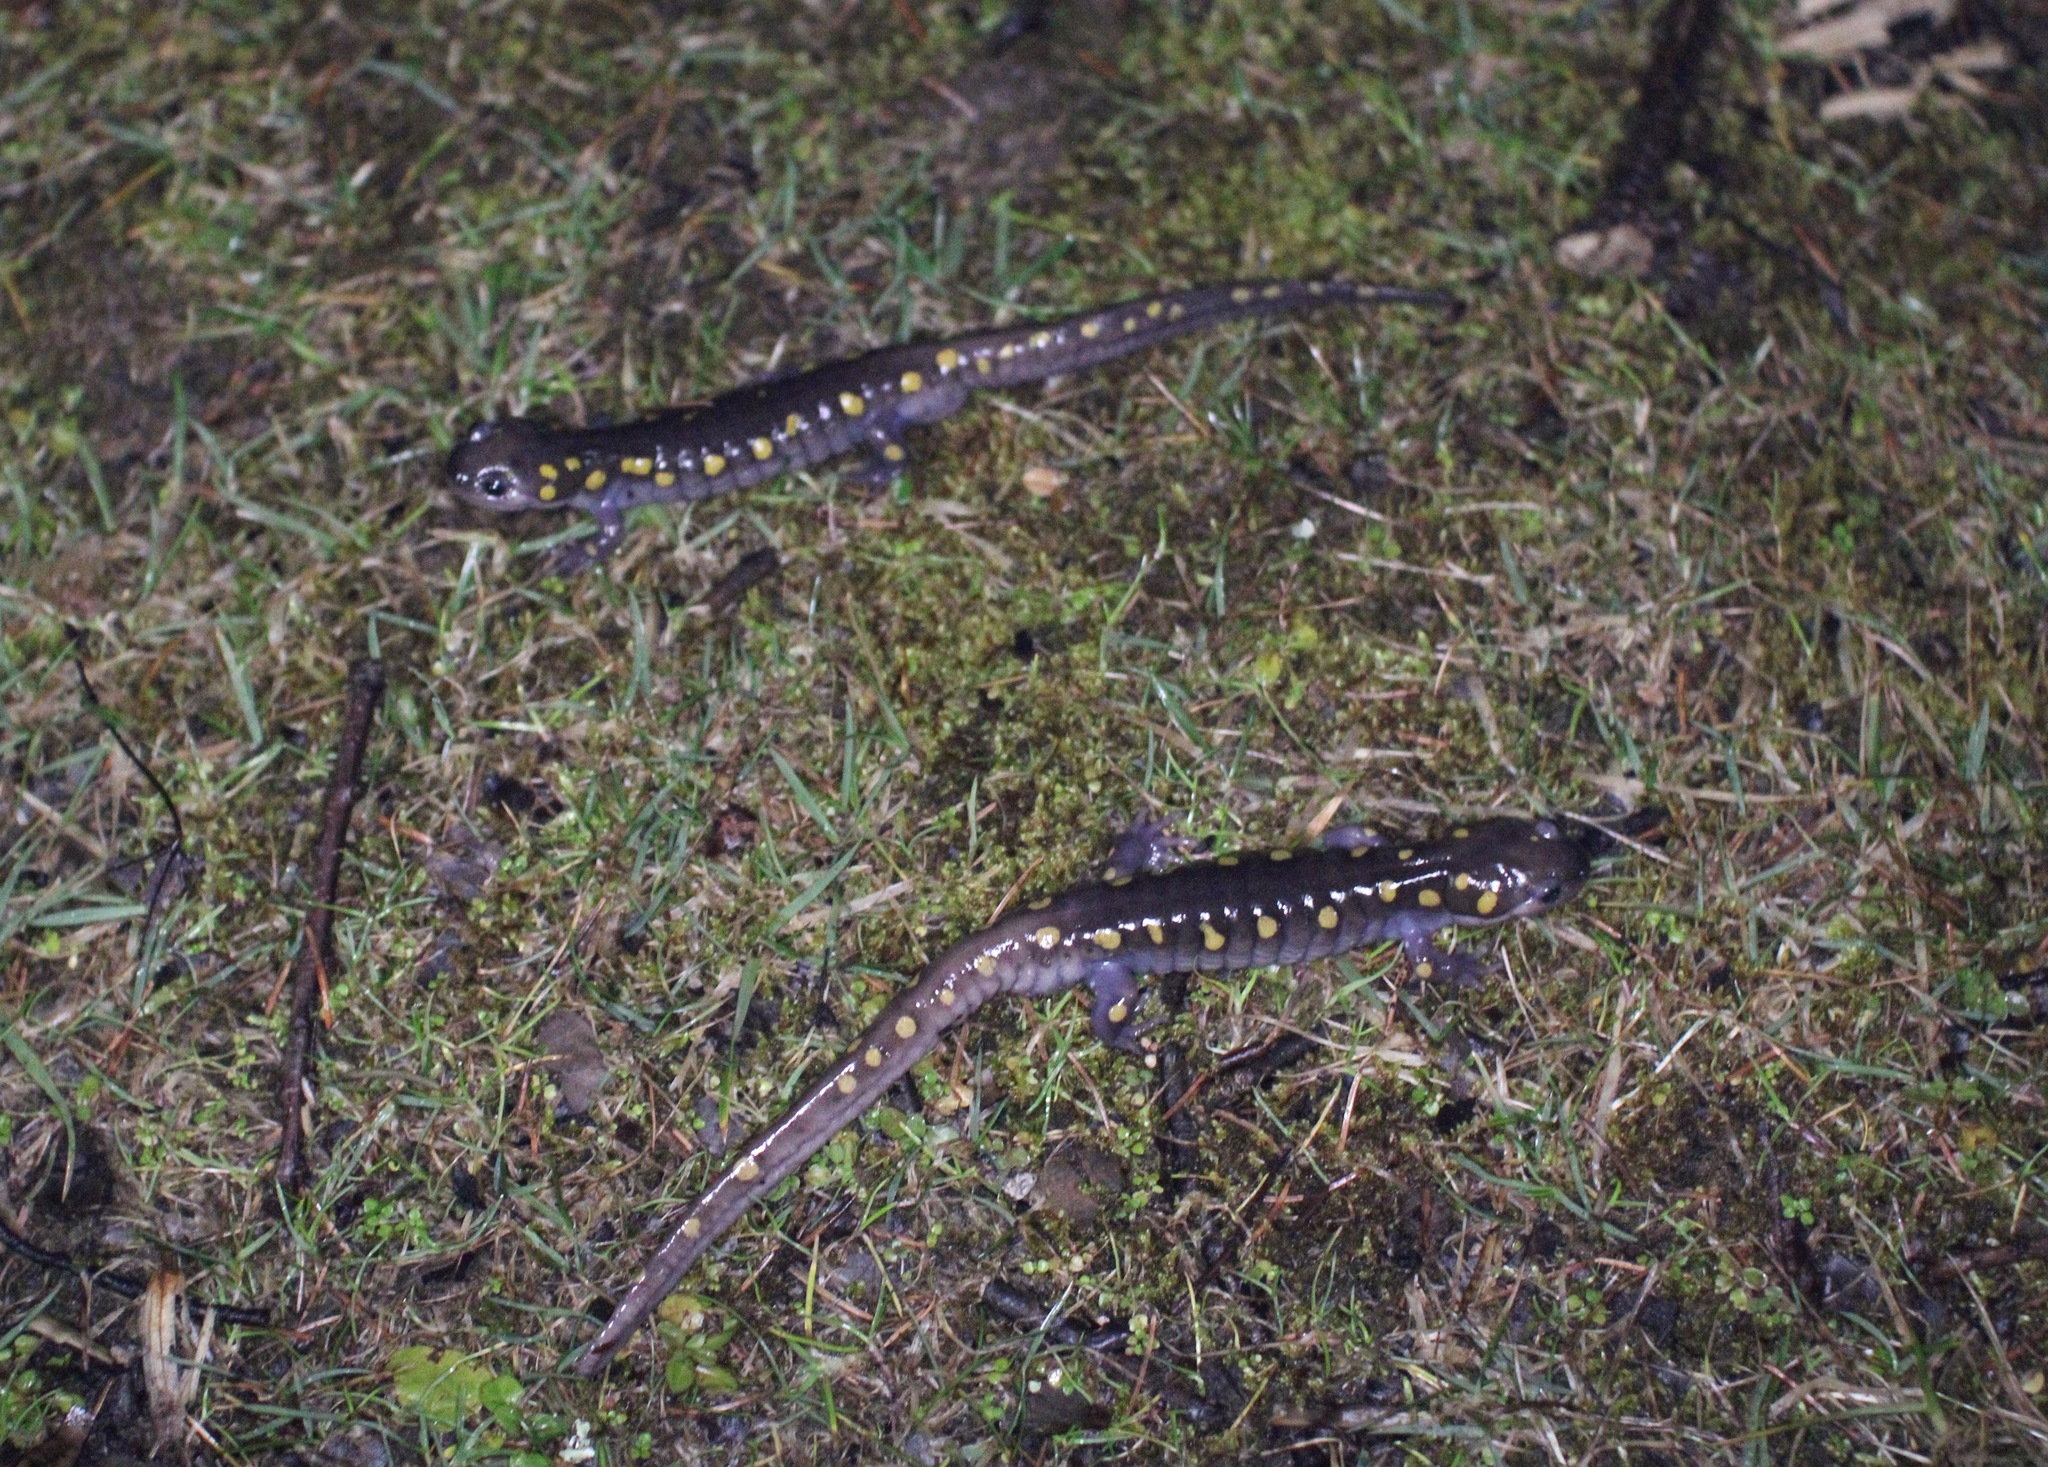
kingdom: Animalia
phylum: Chordata
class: Amphibia
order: Caudata
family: Ambystomatidae
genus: Ambystoma
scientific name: Ambystoma maculatum
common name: Spotted salamander
